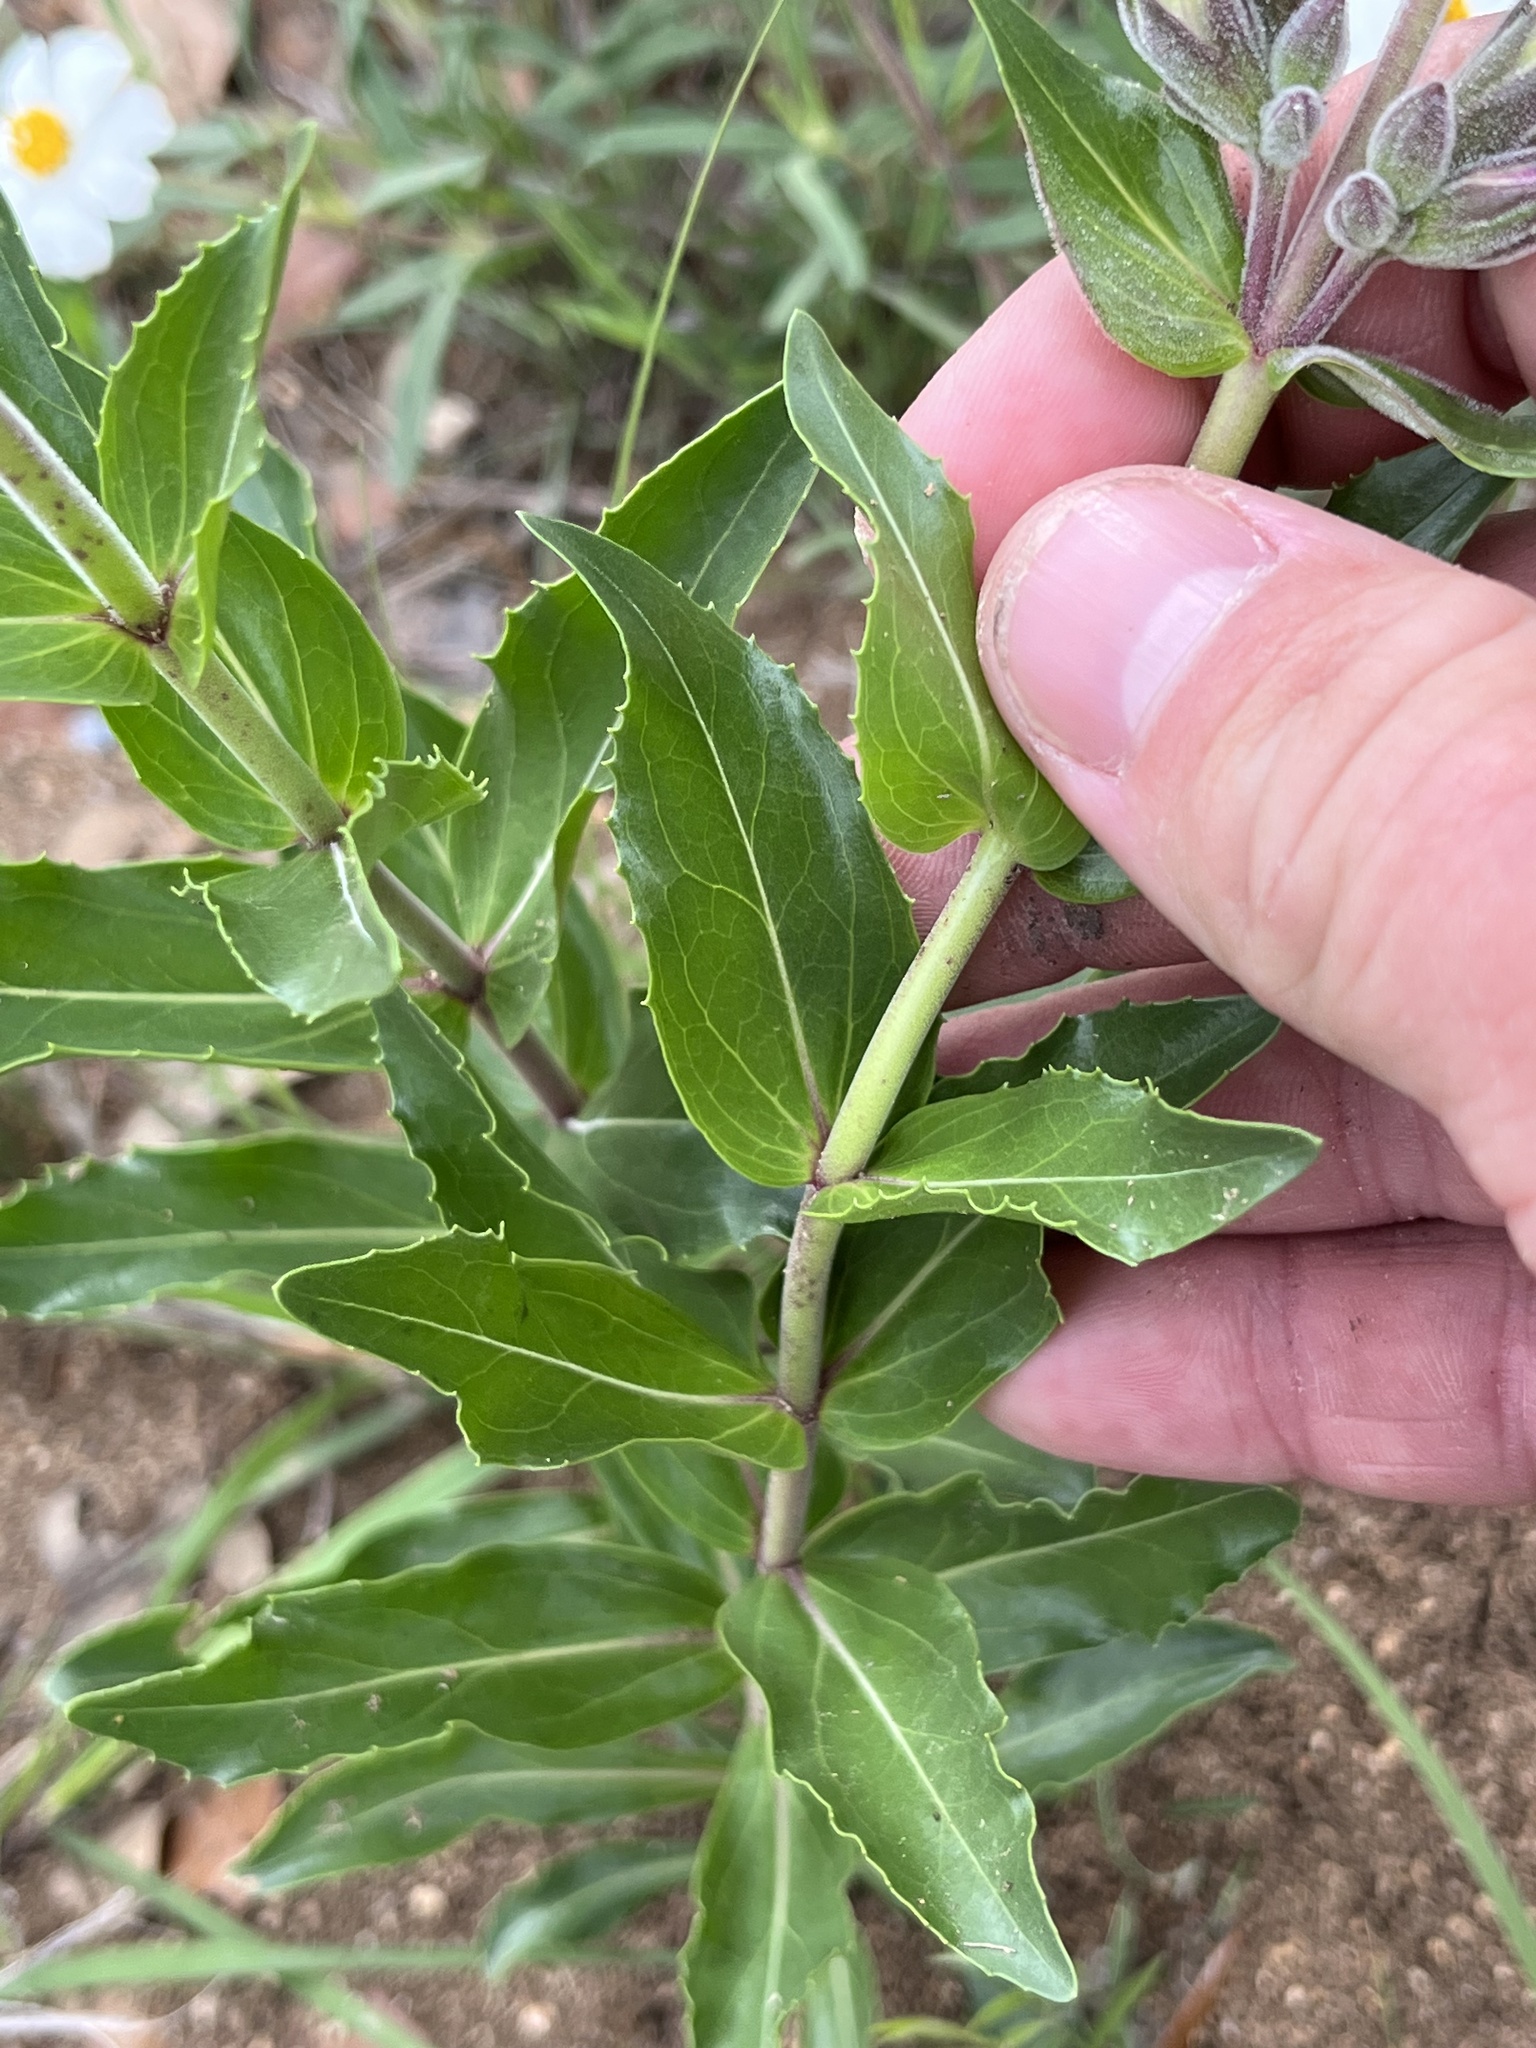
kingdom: Plantae
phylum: Tracheophyta
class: Magnoliopsida
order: Lamiales
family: Plantaginaceae
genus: Penstemon
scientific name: Penstemon cobaea
